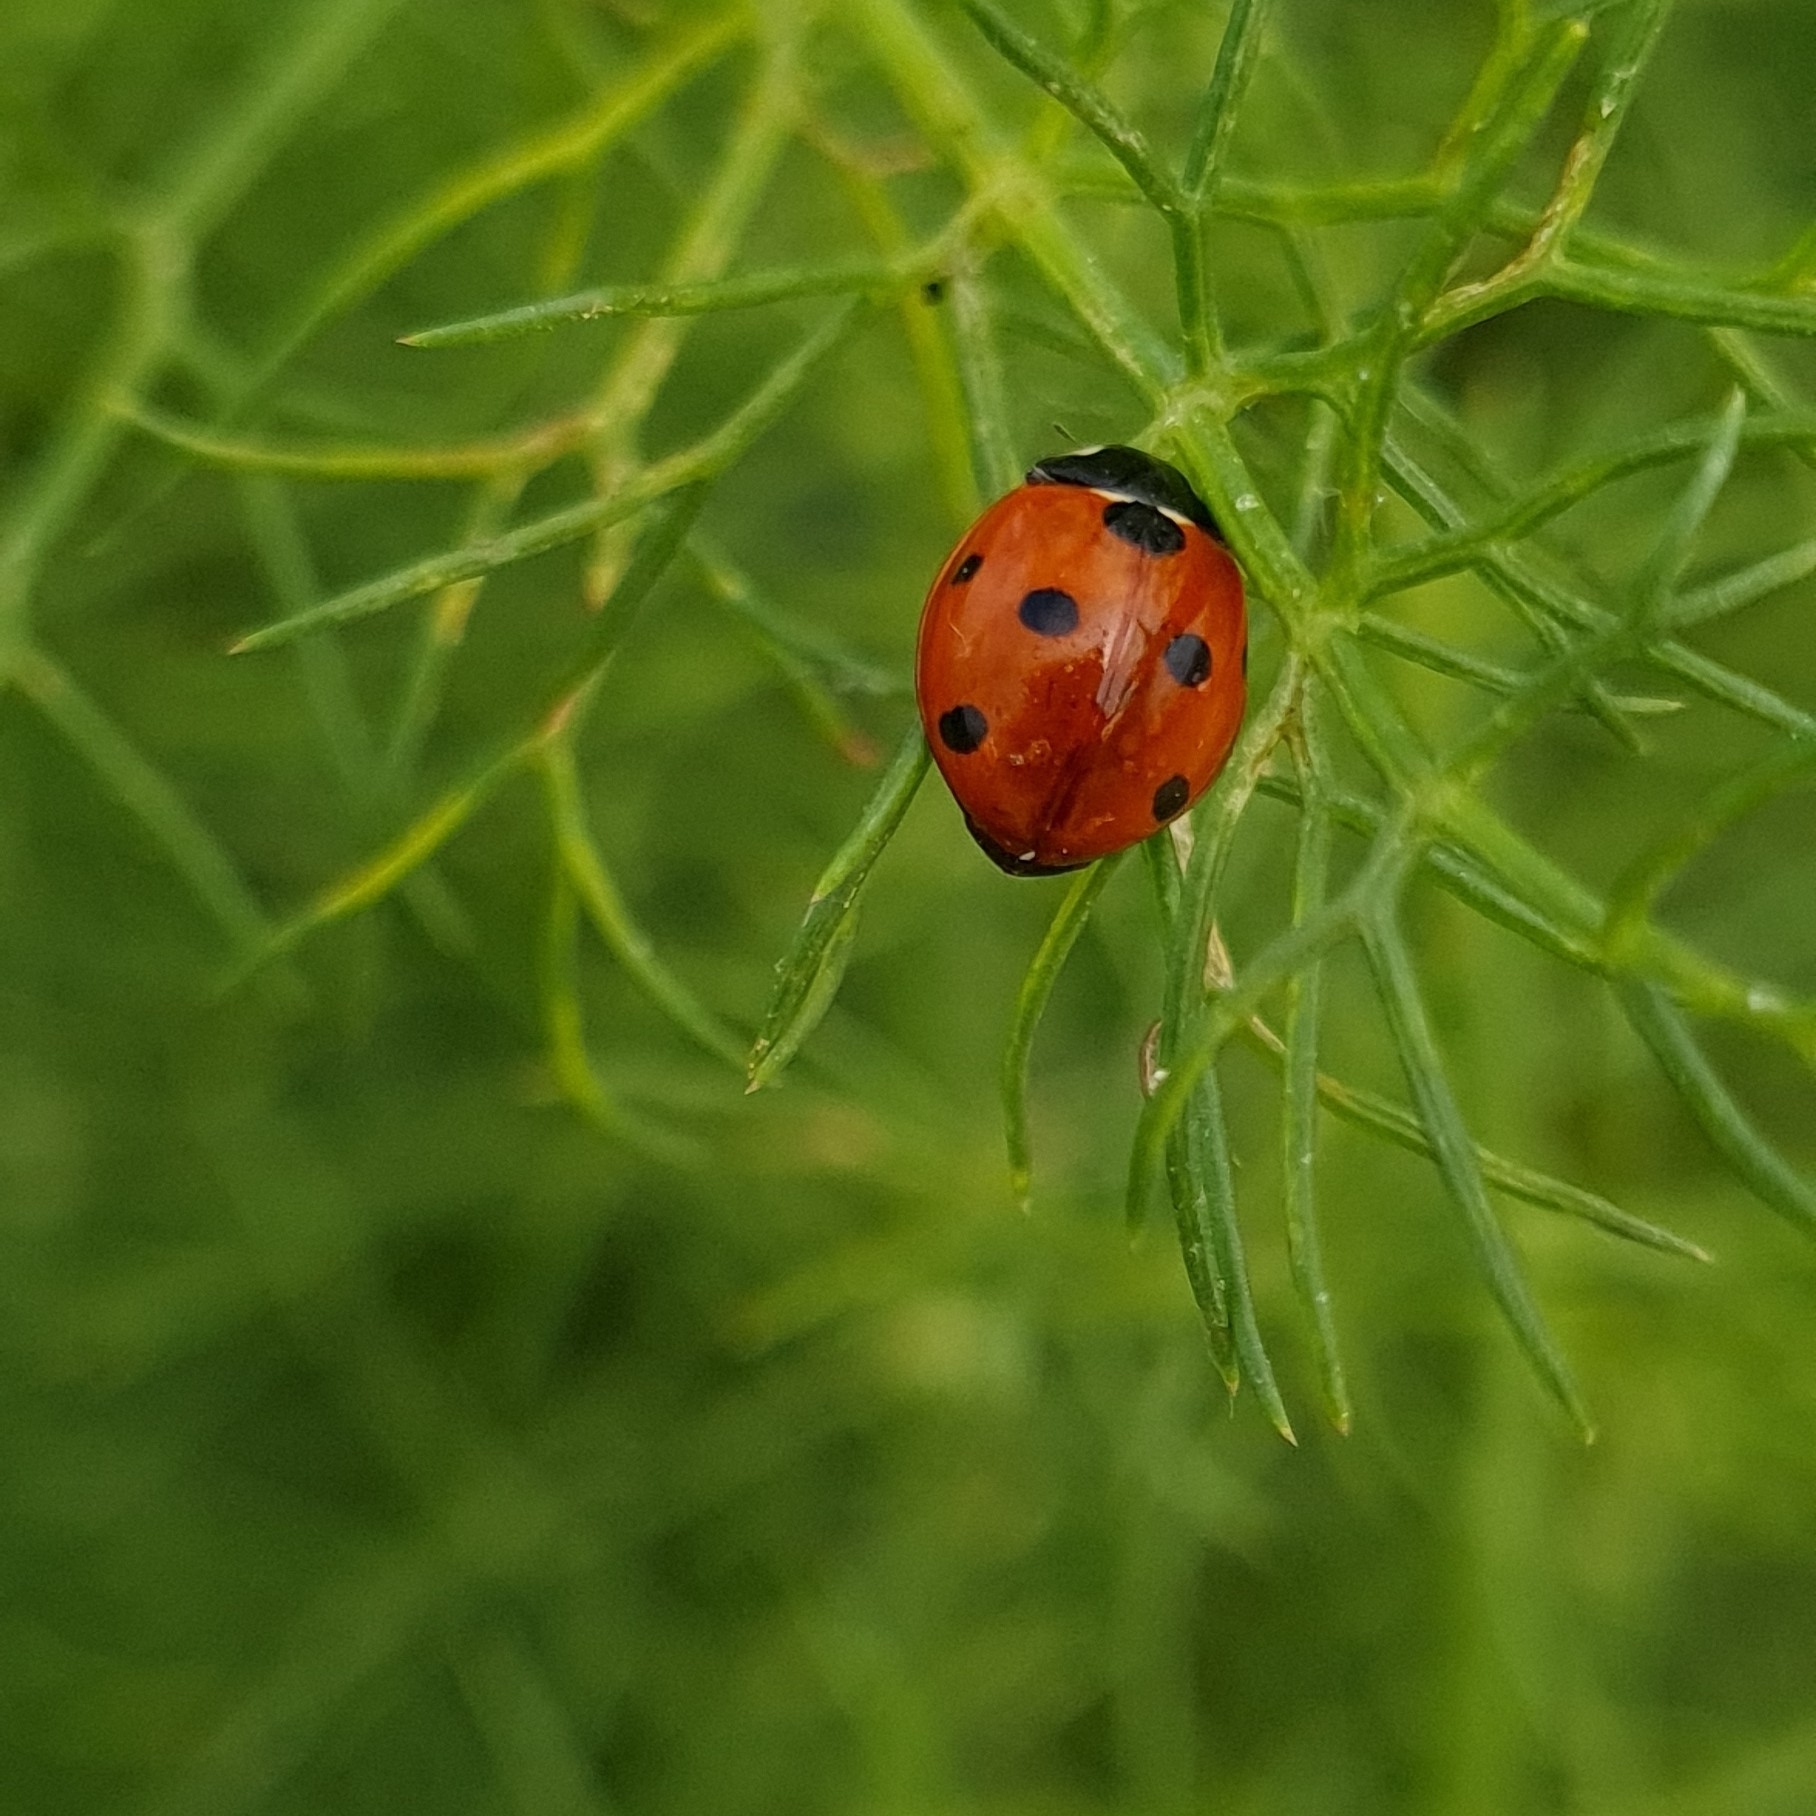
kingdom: Animalia
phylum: Arthropoda
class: Insecta
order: Coleoptera
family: Coccinellidae
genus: Coccinella
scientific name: Coccinella septempunctata
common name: Sevenspotted lady beetle
